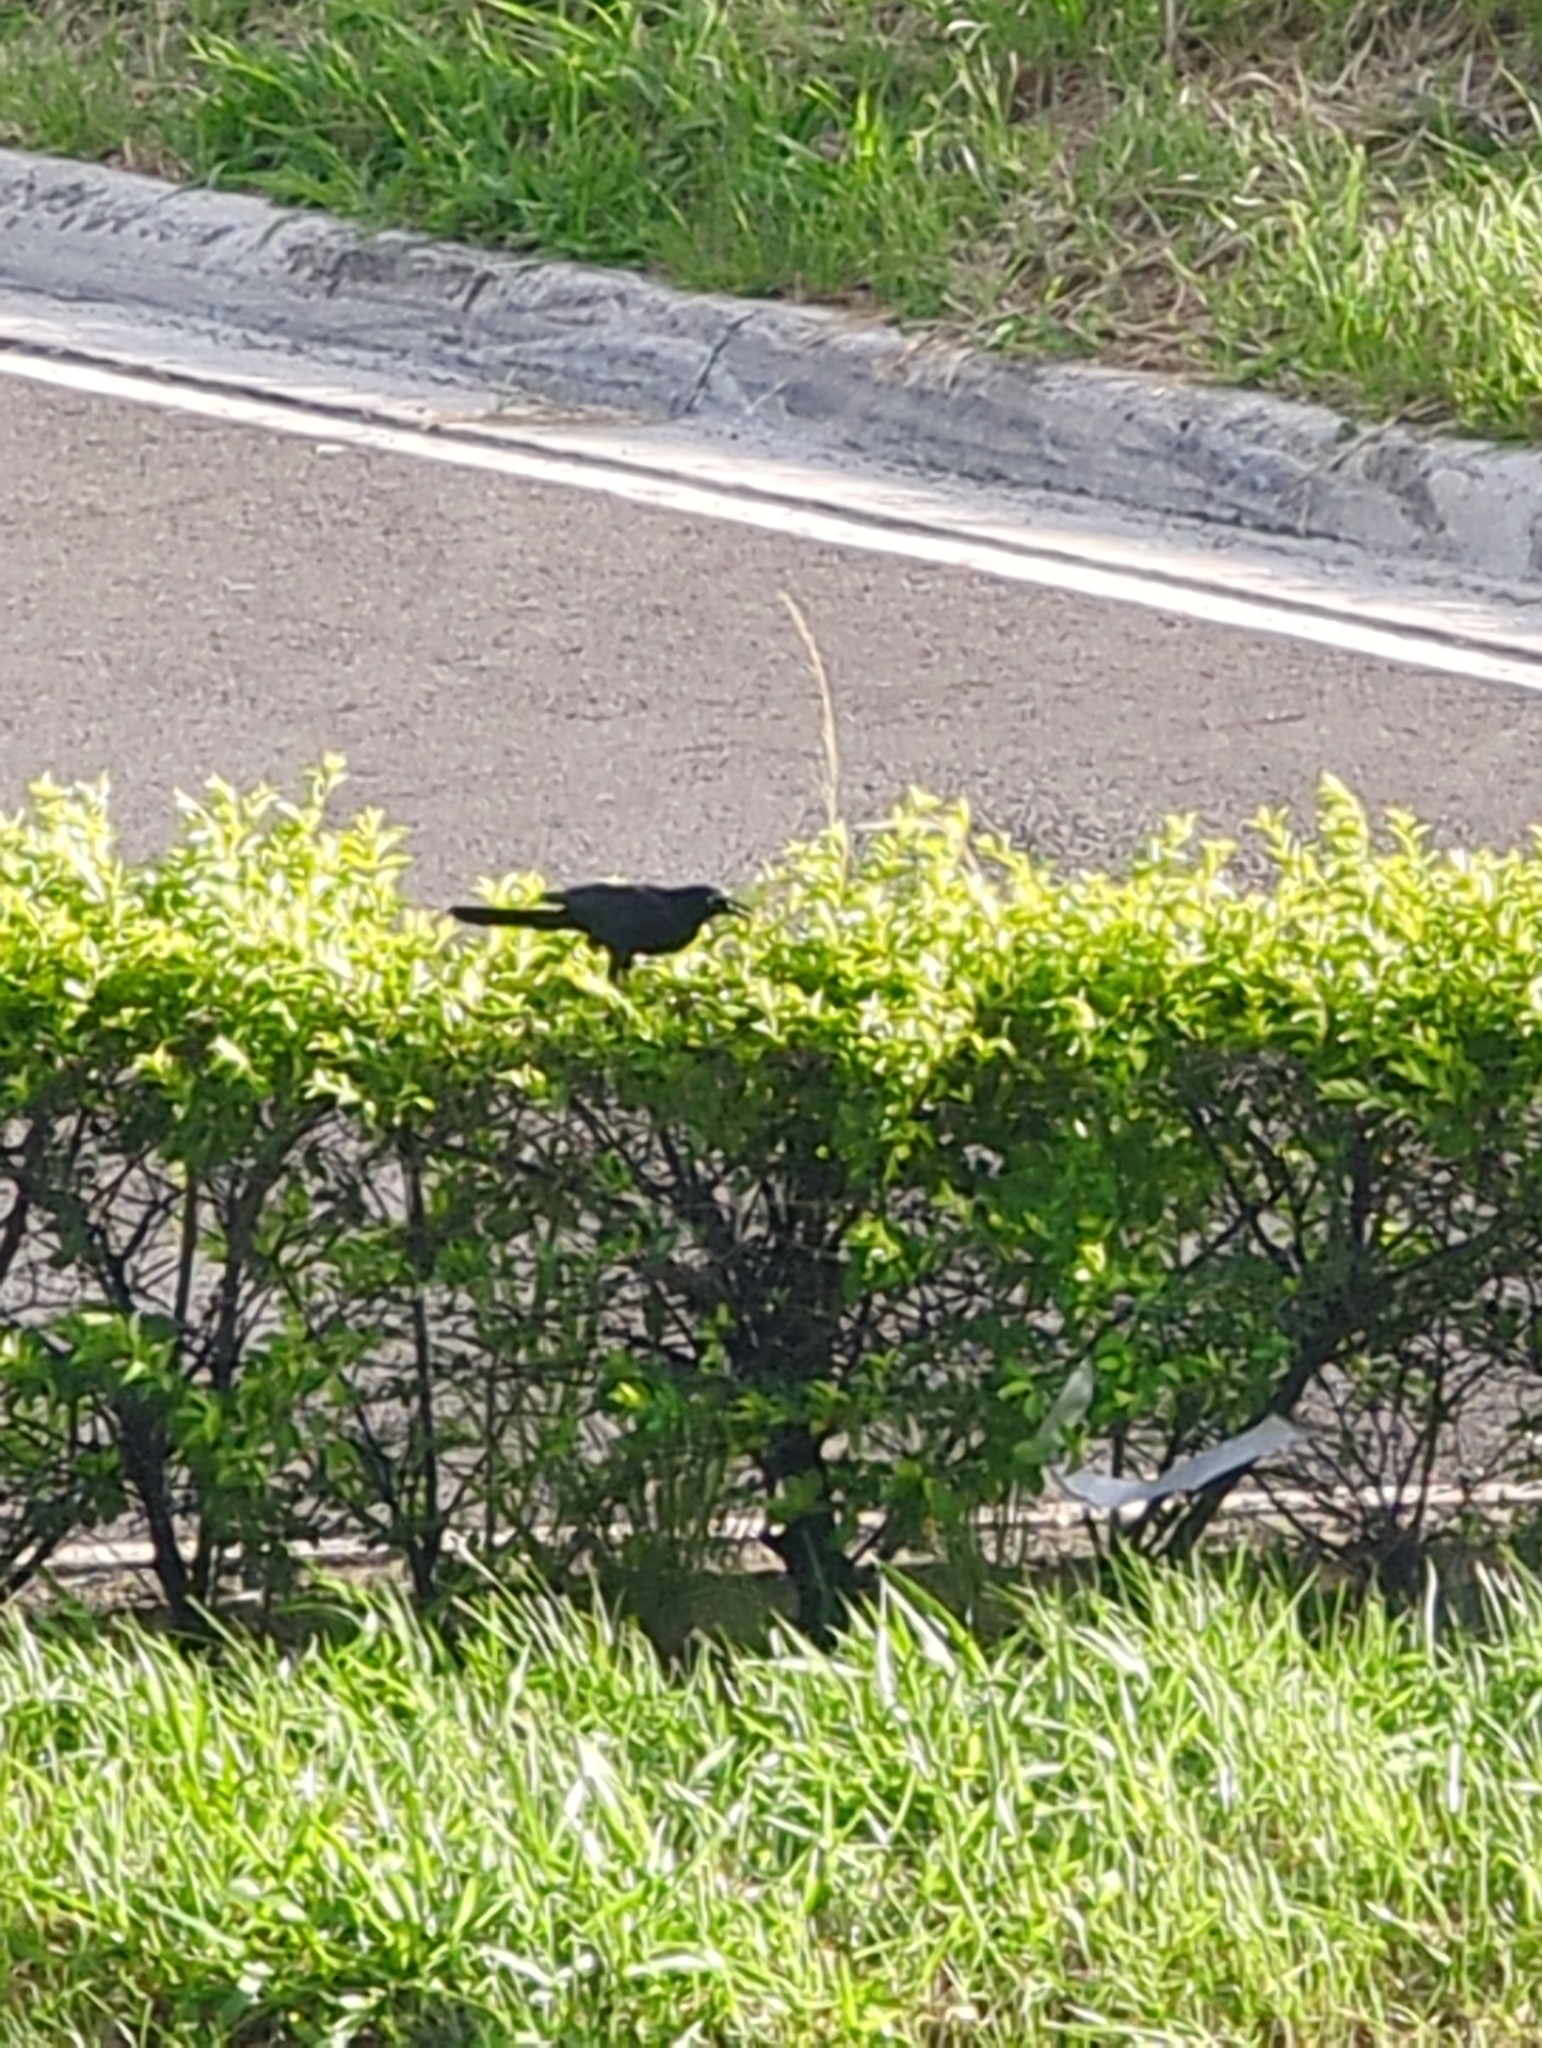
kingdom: Animalia
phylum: Chordata
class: Aves
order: Passeriformes
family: Icteridae
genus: Quiscalus
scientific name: Quiscalus mexicanus
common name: Great-tailed grackle
